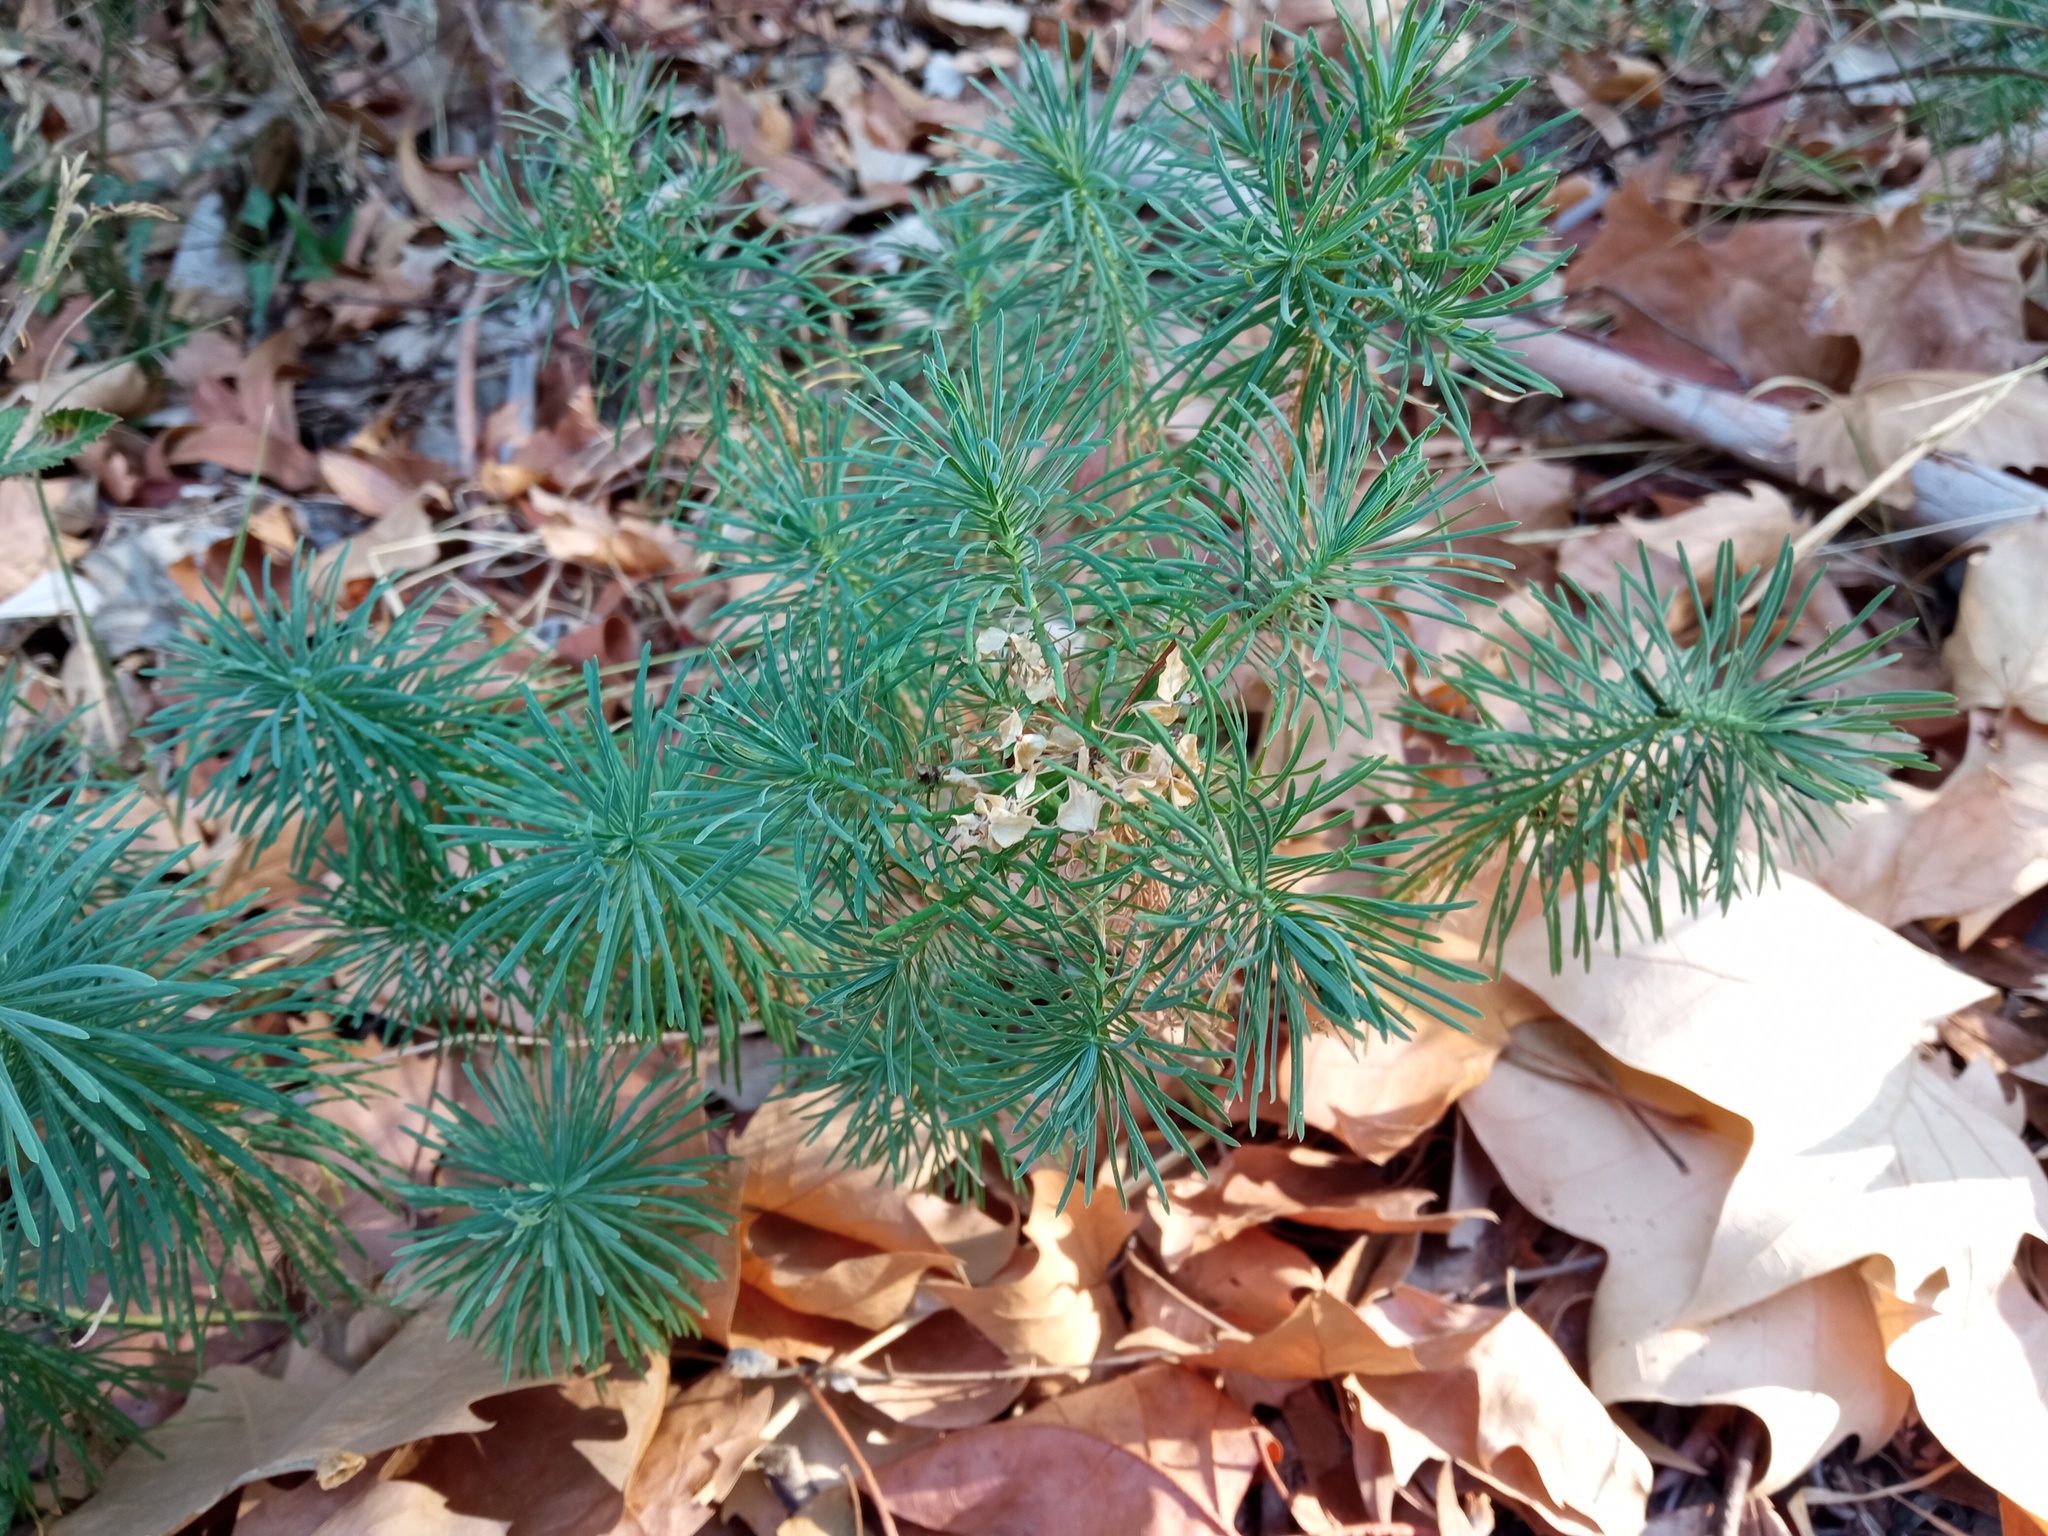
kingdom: Plantae
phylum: Tracheophyta
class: Magnoliopsida
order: Malpighiales
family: Euphorbiaceae
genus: Euphorbia
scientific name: Euphorbia cyparissias
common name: Cypress spurge
